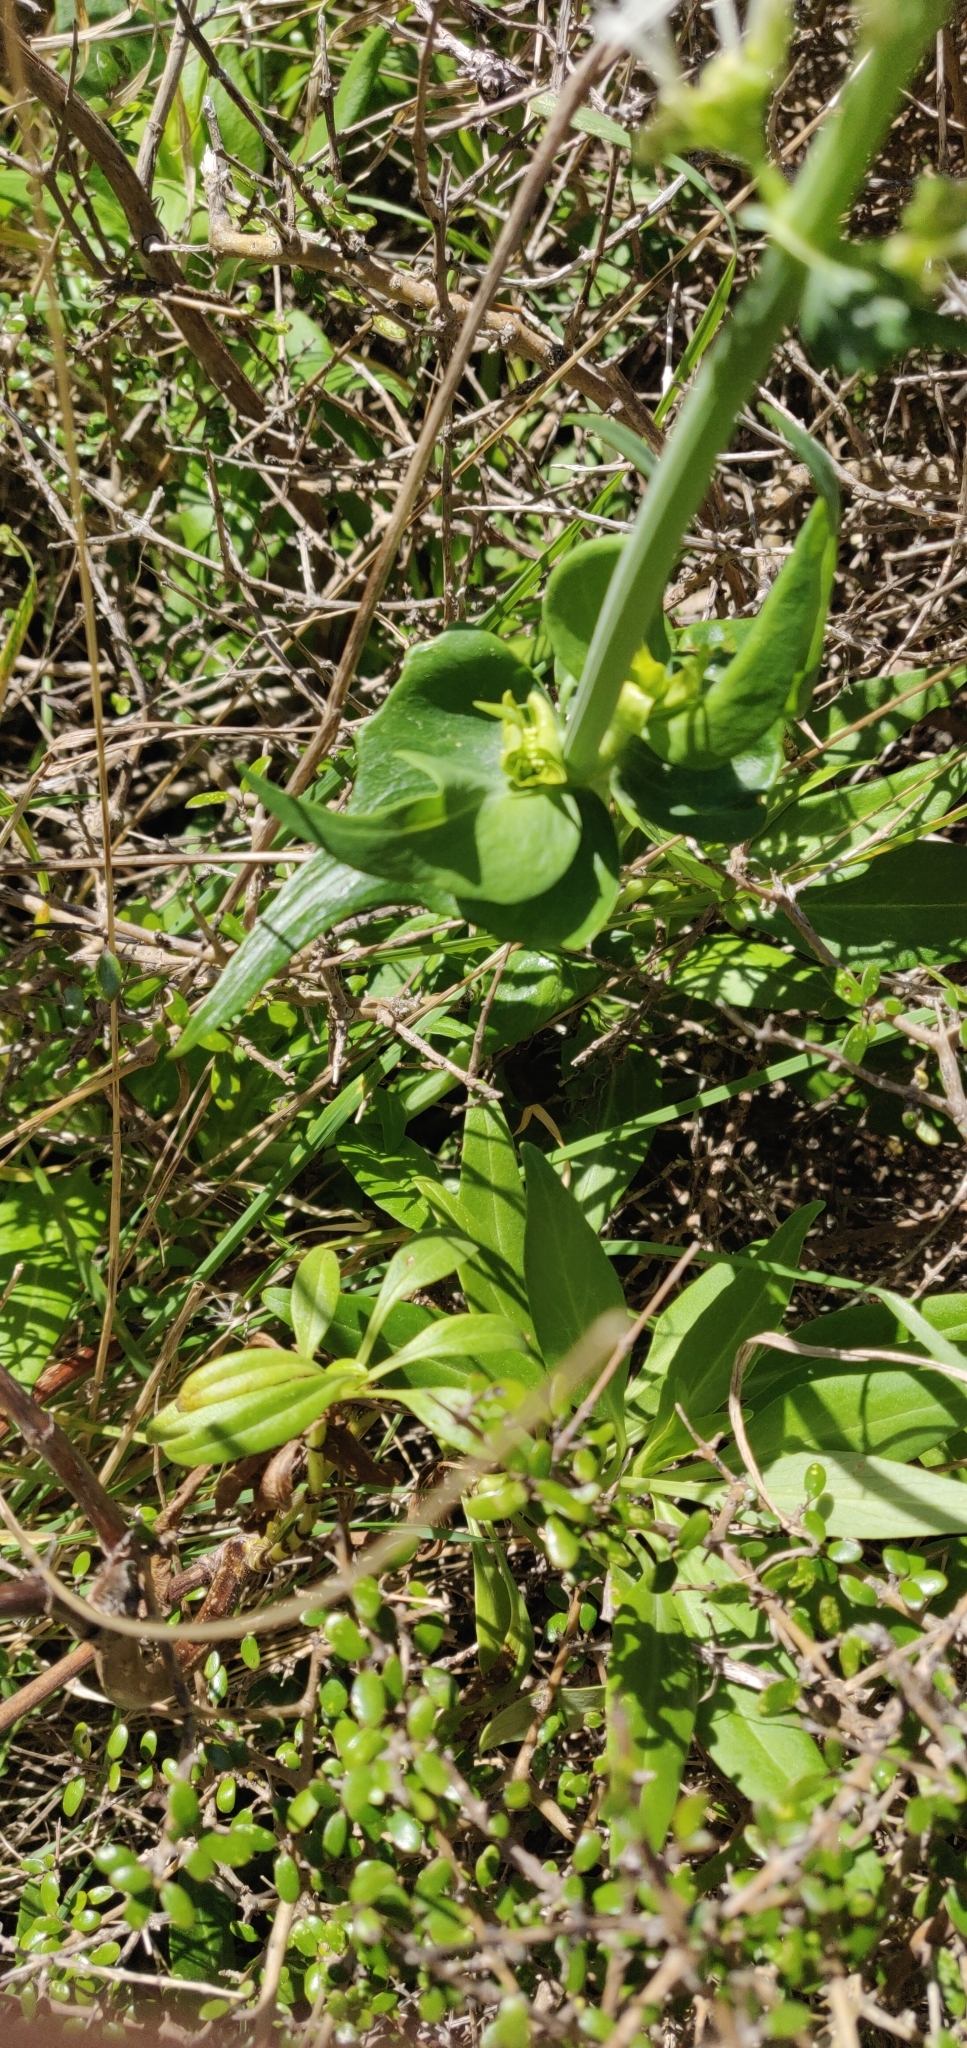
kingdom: Plantae
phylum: Tracheophyta
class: Magnoliopsida
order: Dipsacales
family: Caprifoliaceae
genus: Centranthus
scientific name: Centranthus ruber
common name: Red valerian
